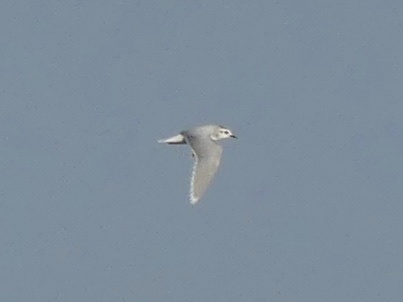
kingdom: Animalia
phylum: Chordata
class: Aves
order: Charadriiformes
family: Laridae
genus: Hydrocoloeus
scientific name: Hydrocoloeus minutus
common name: Little gull
